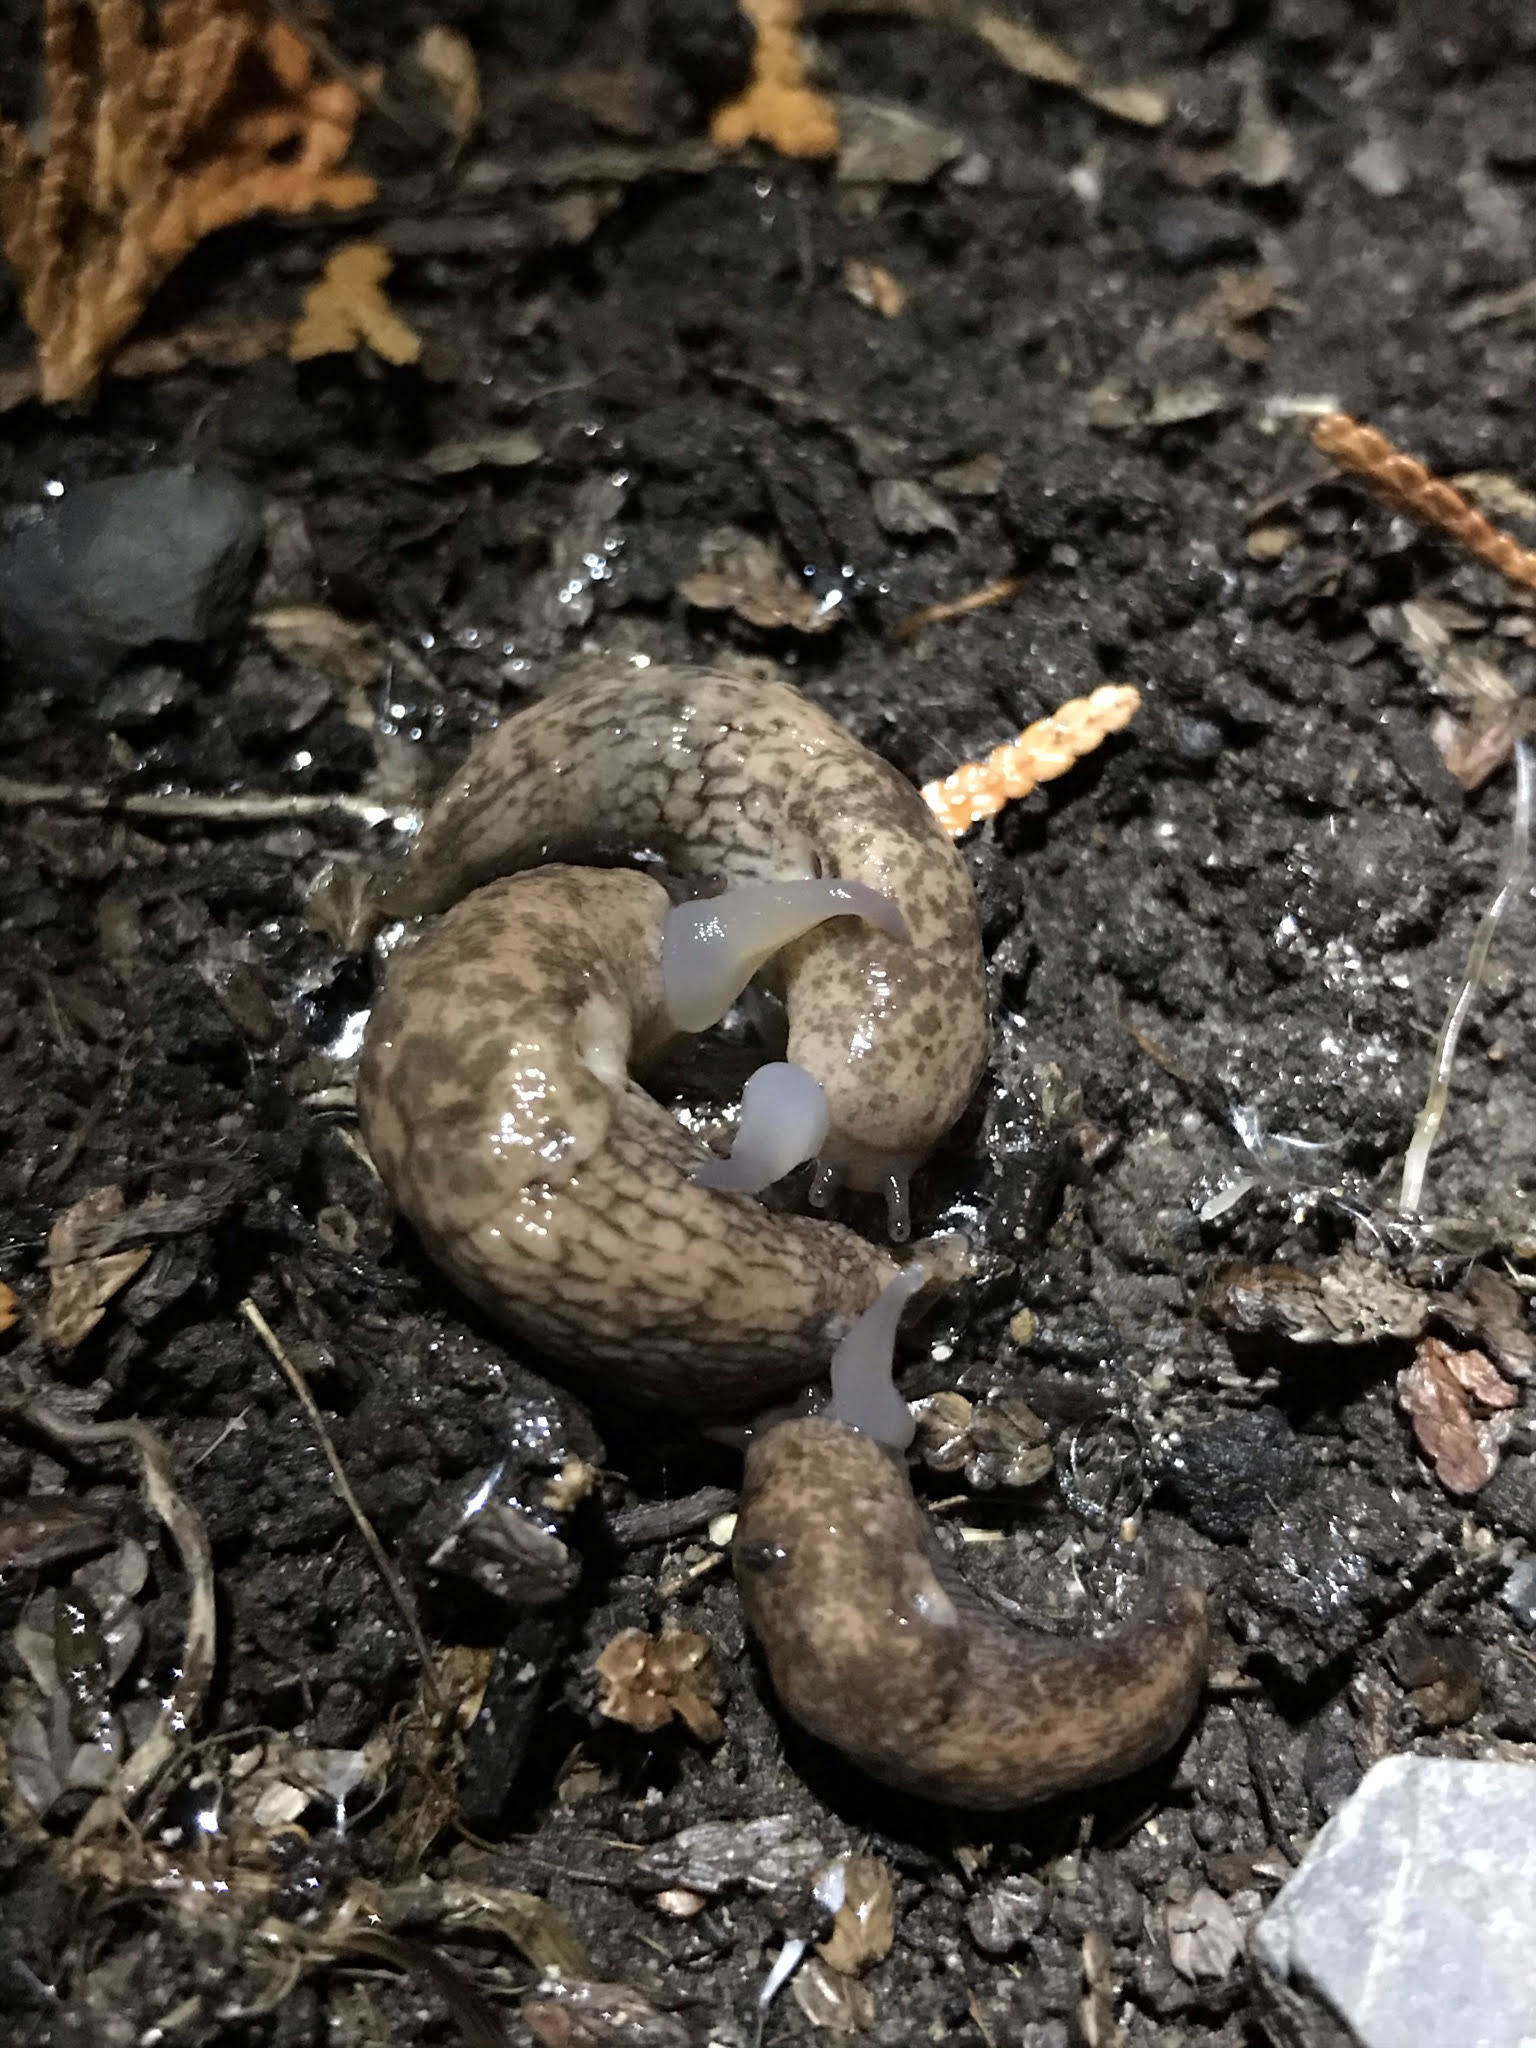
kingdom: Animalia
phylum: Mollusca
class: Gastropoda
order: Stylommatophora
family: Agriolimacidae
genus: Deroceras
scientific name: Deroceras reticulatum
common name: Gray field slug
